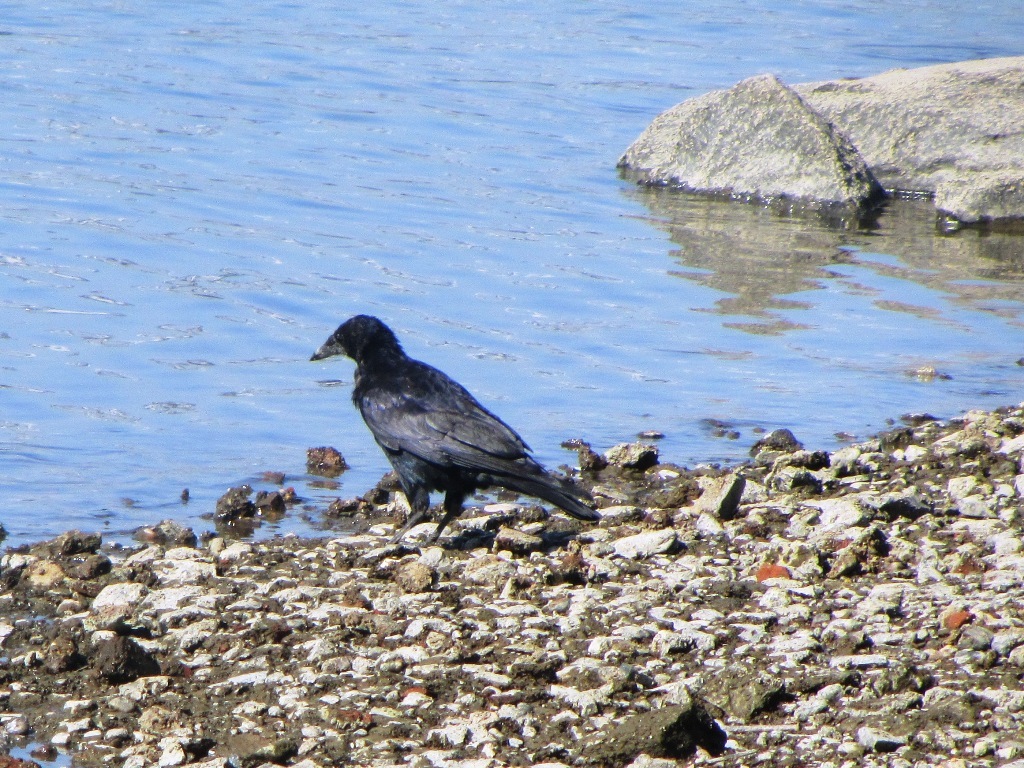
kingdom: Animalia
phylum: Chordata
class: Aves
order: Passeriformes
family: Corvidae
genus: Corvus
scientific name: Corvus frugilegus
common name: Rook
